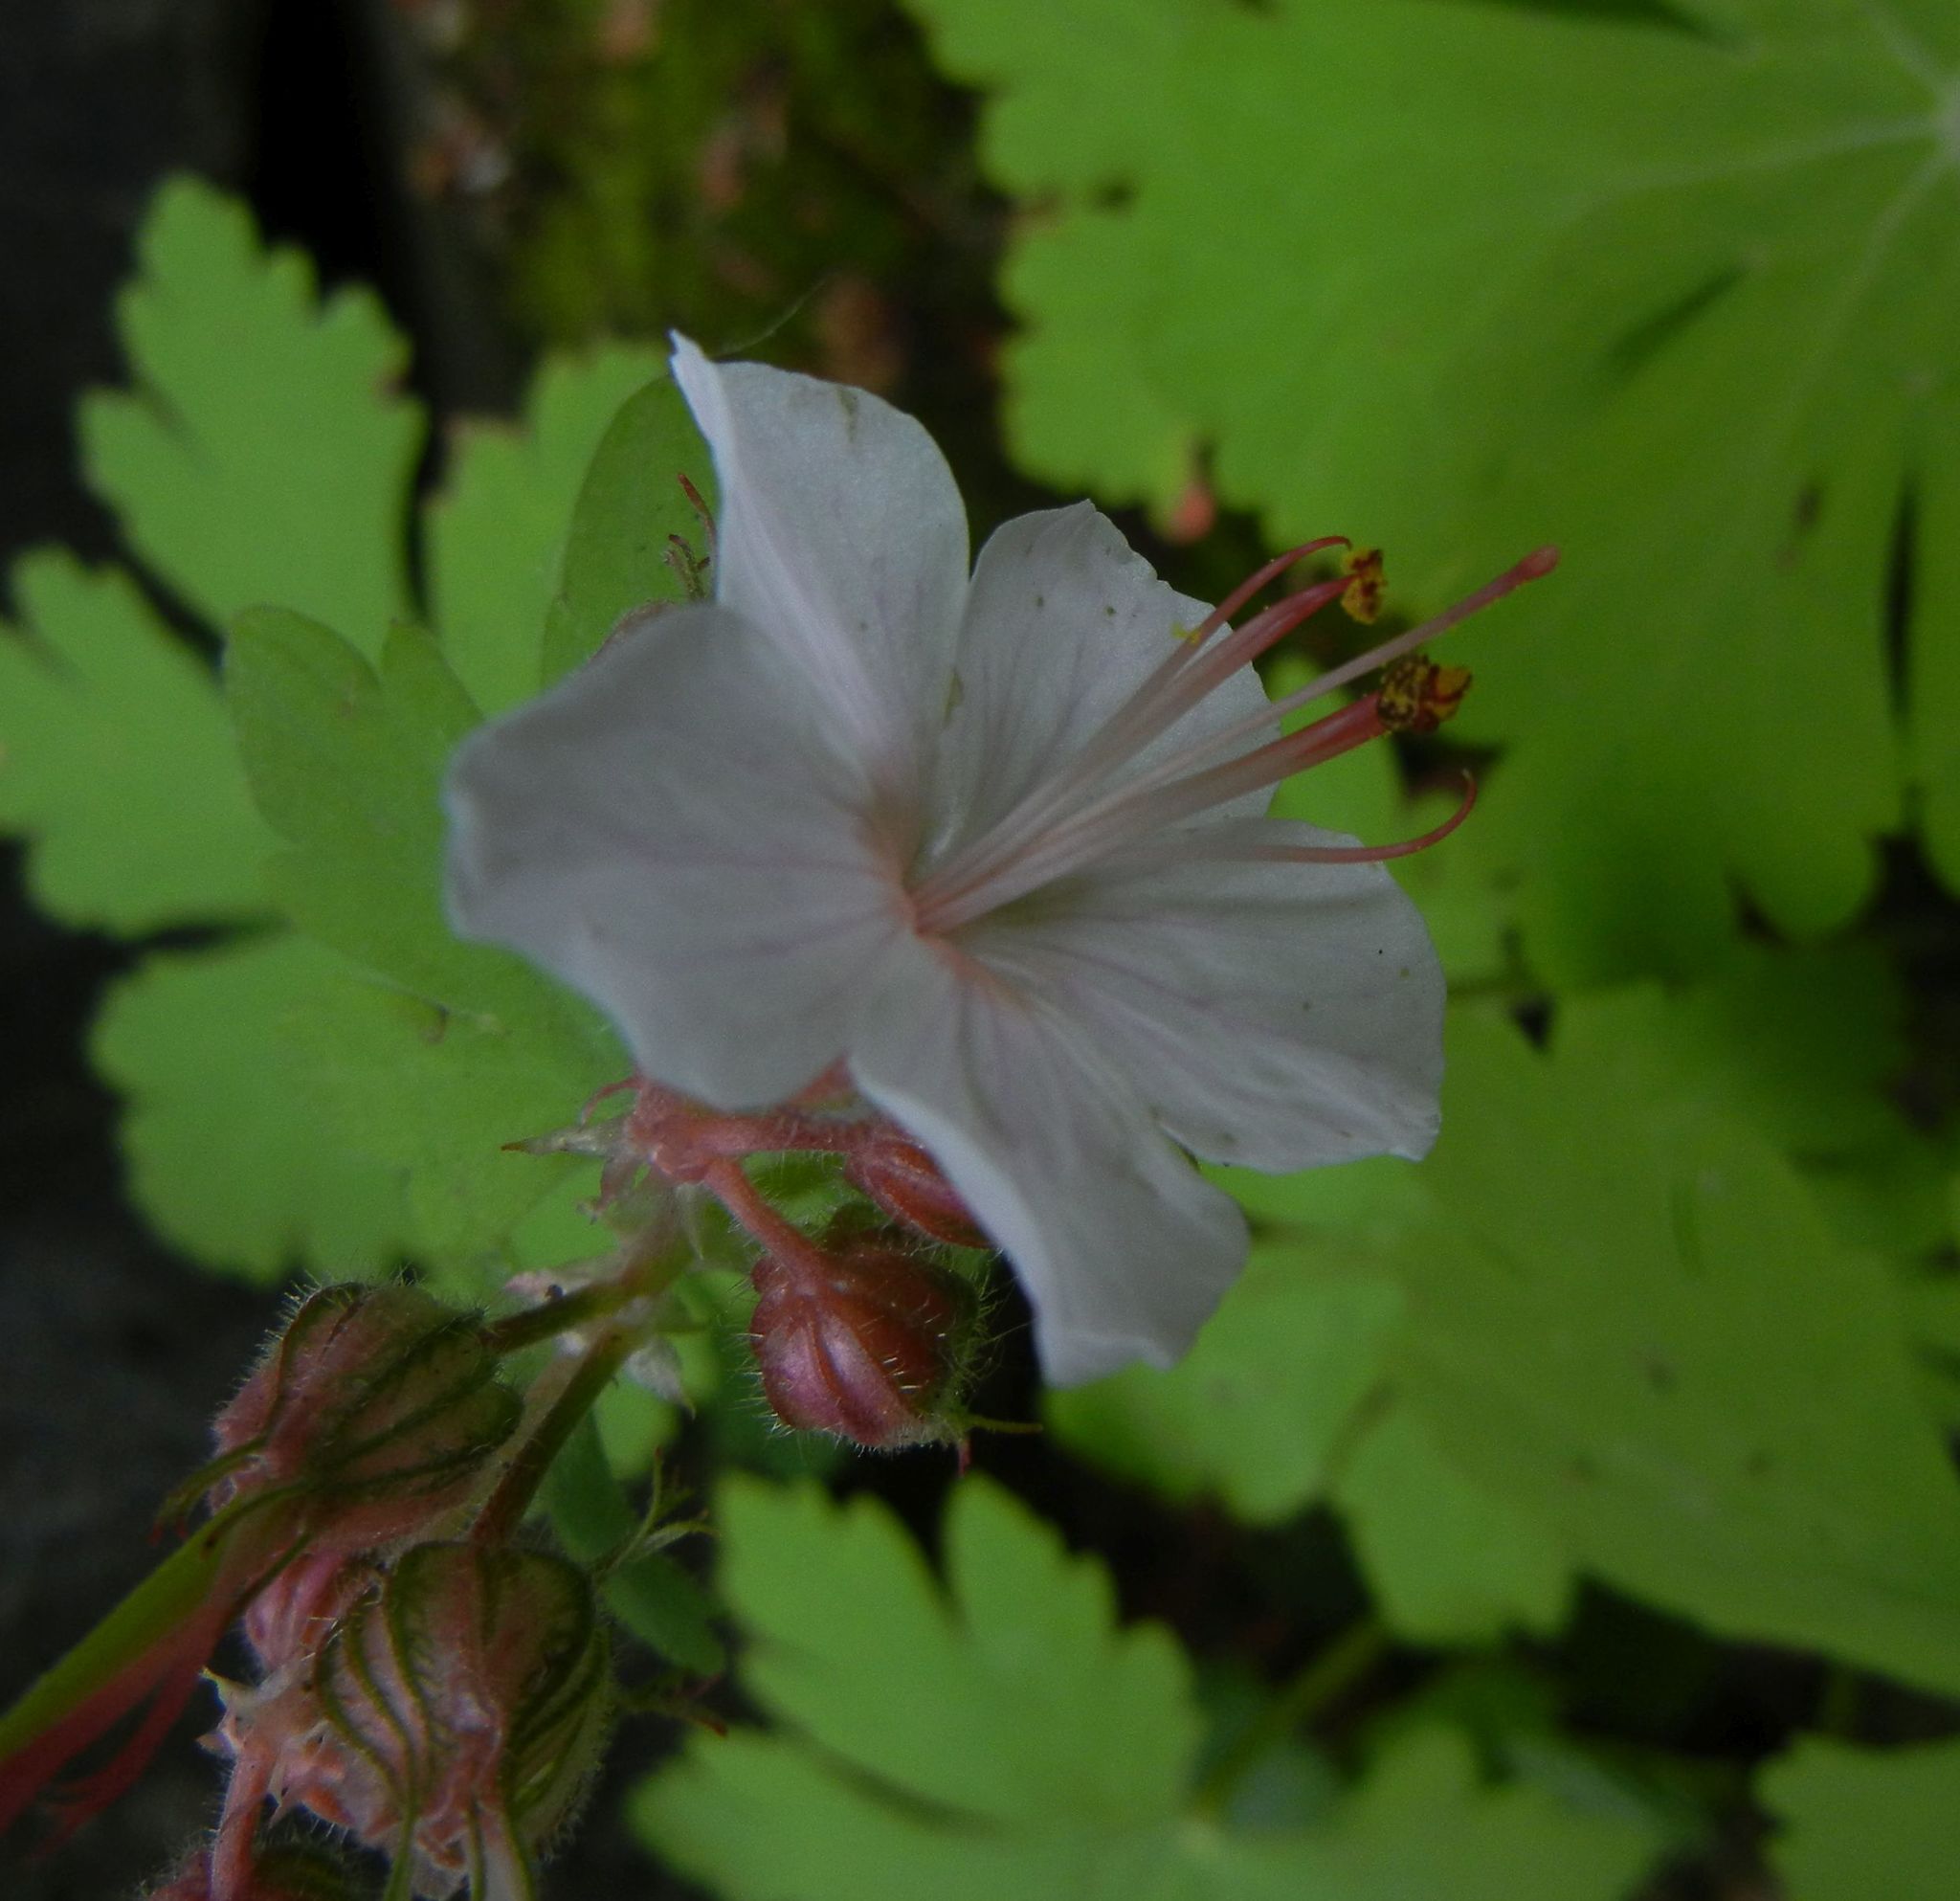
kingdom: Plantae
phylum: Tracheophyta
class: Magnoliopsida
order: Geraniales
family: Geraniaceae
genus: Geranium
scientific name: Geranium macrorrhizum
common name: Rock crane's-bill
